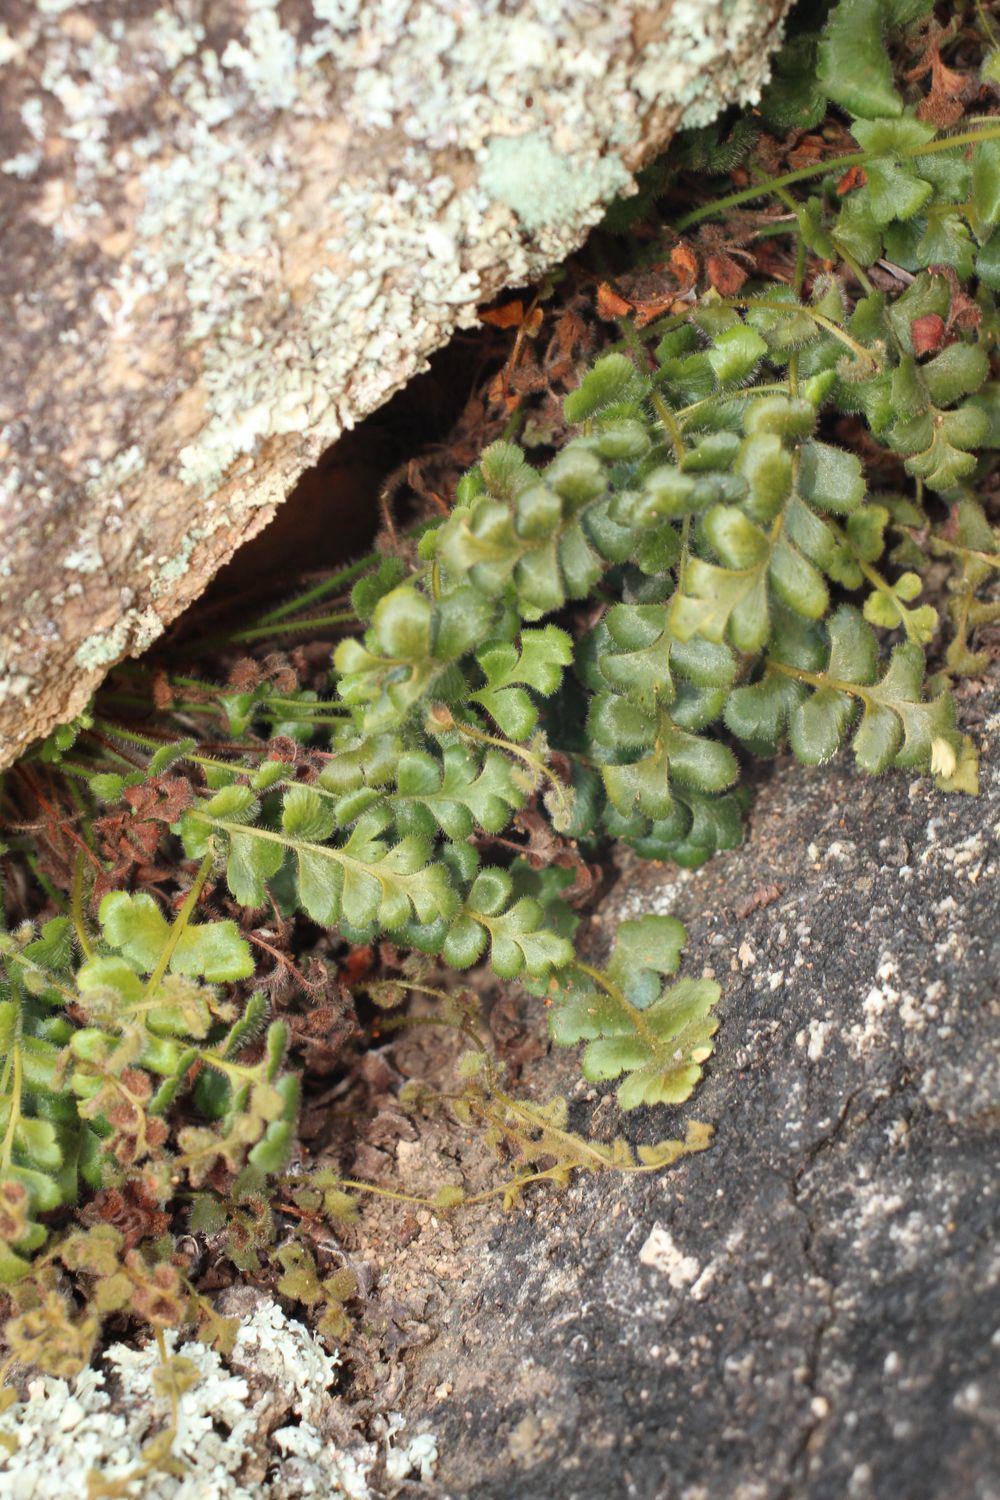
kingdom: Plantae
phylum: Tracheophyta
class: Polypodiopsida
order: Polypodiales
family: Aspleniaceae
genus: Asplenium
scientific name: Asplenium subglandulosum
